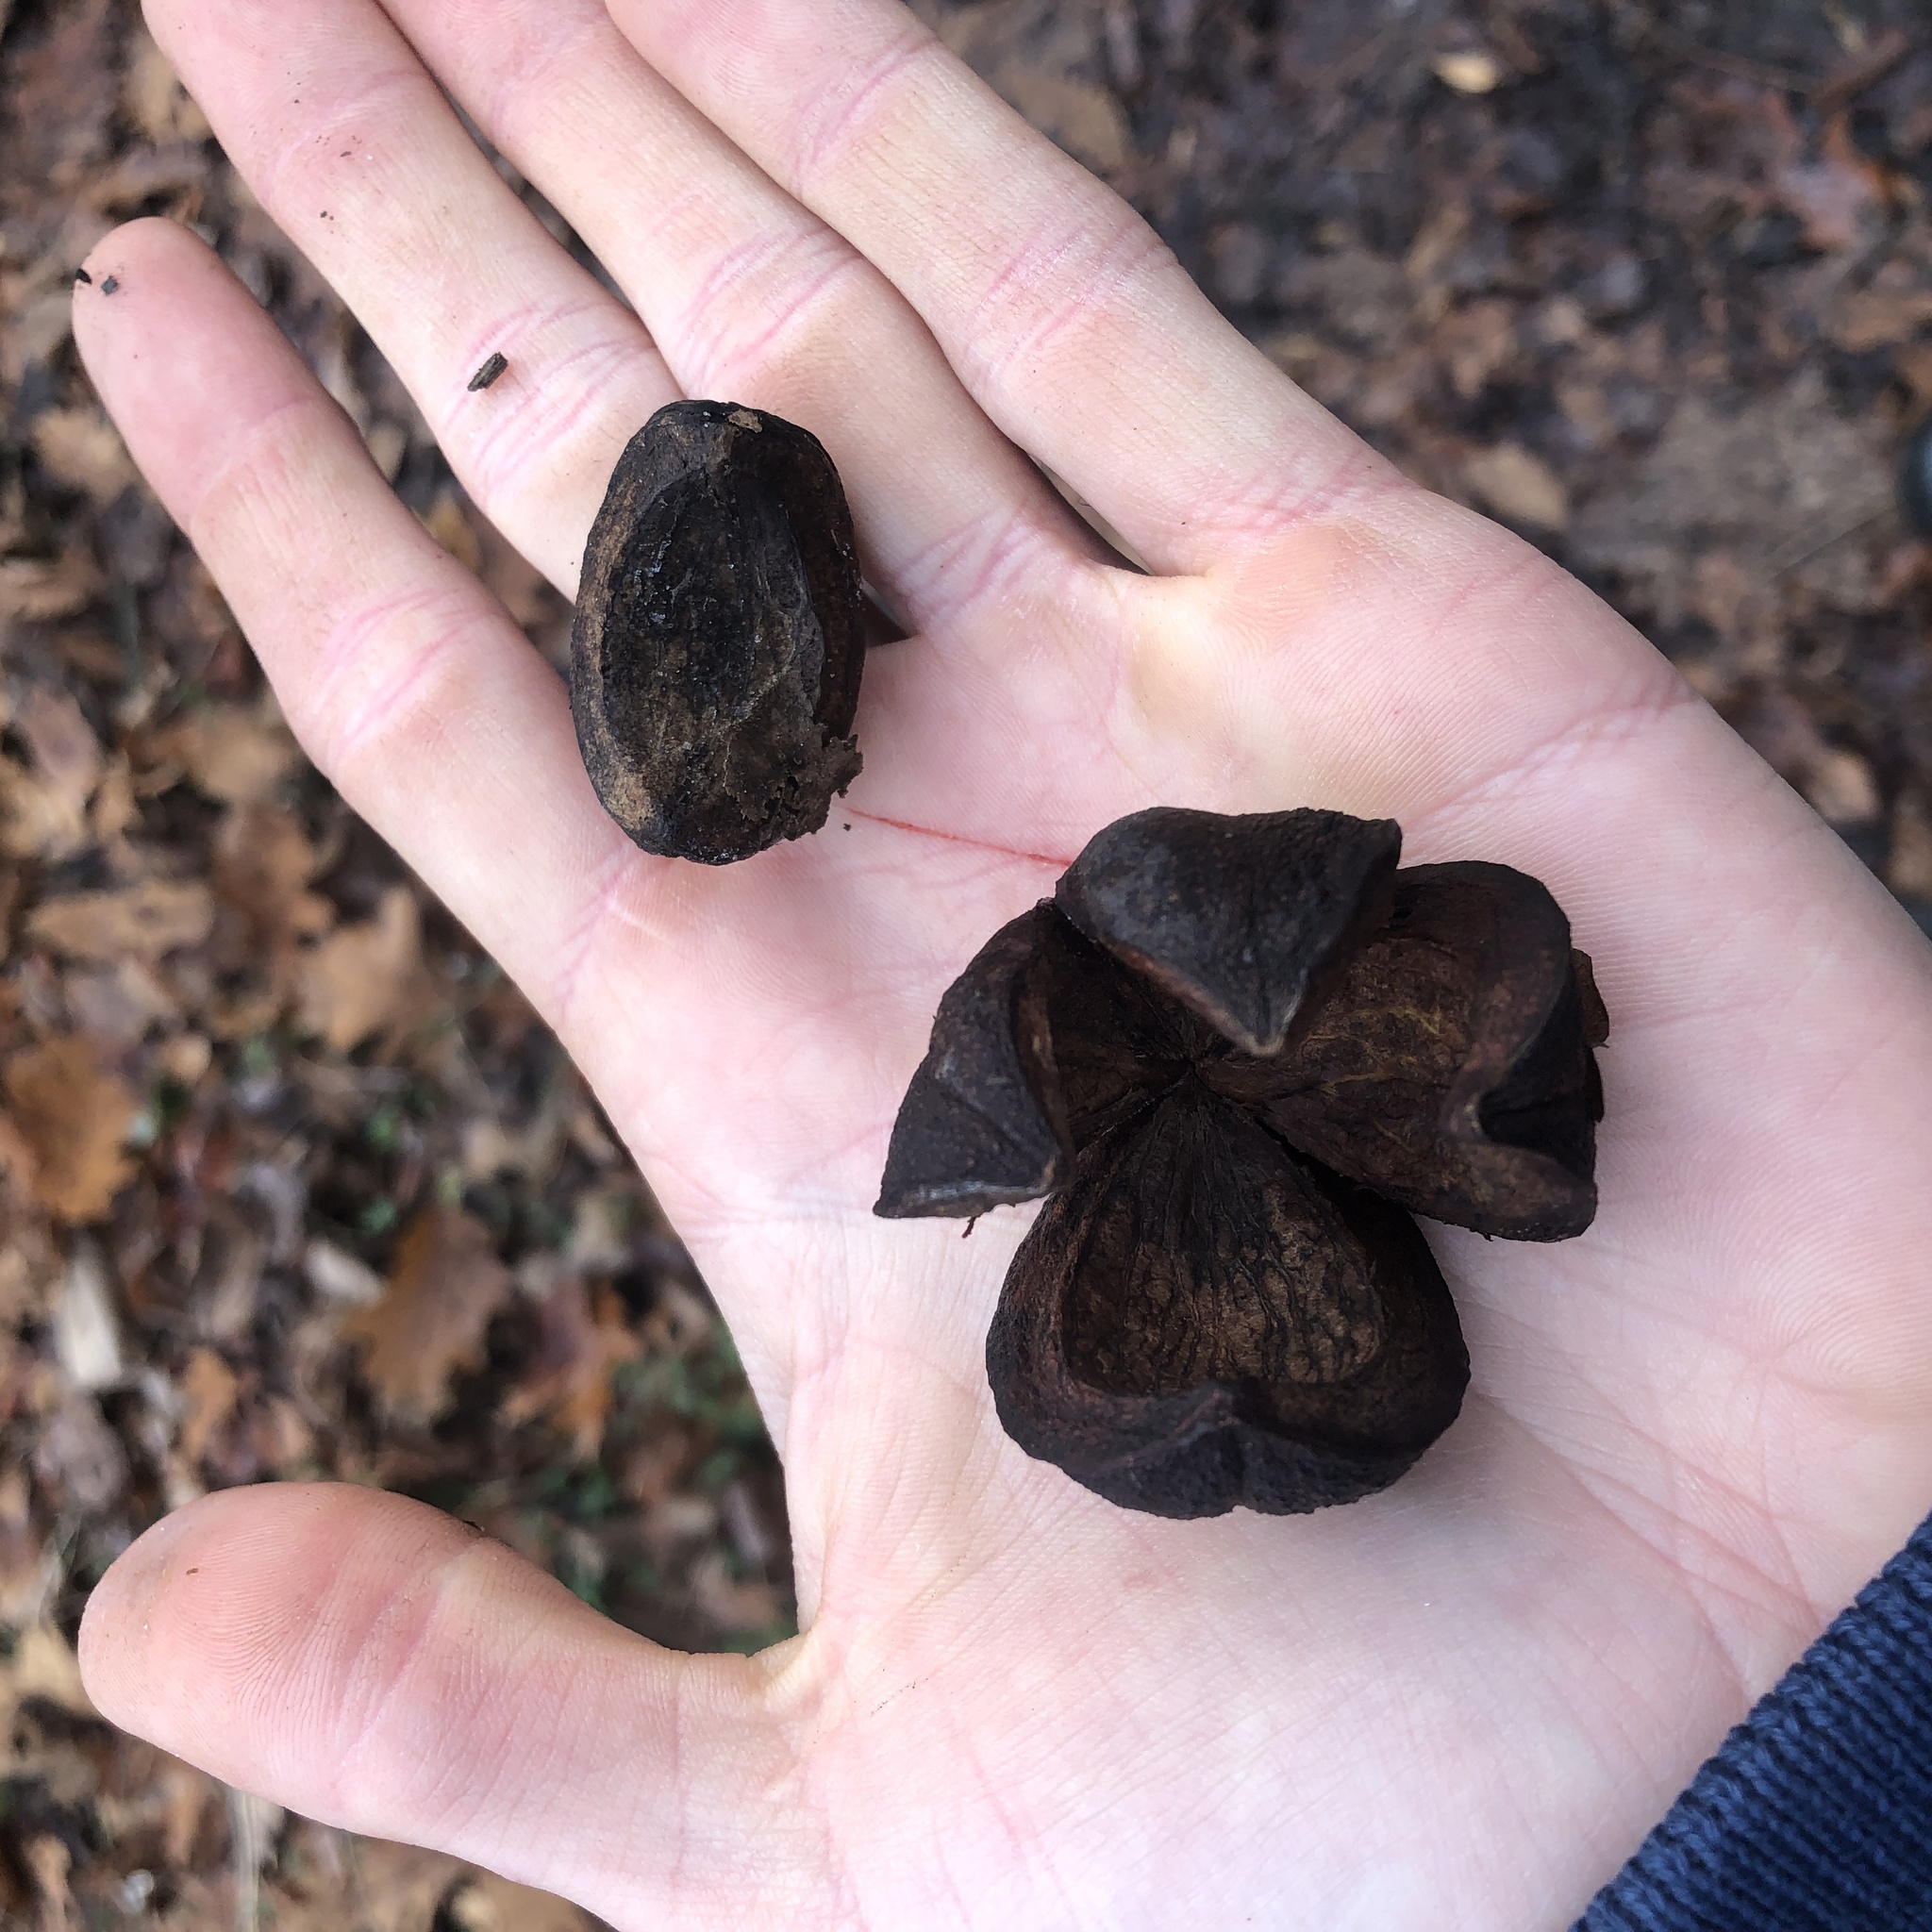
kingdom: Plantae
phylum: Tracheophyta
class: Magnoliopsida
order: Fagales
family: Juglandaceae
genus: Carya
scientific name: Carya ovata
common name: Shagbark hickory
